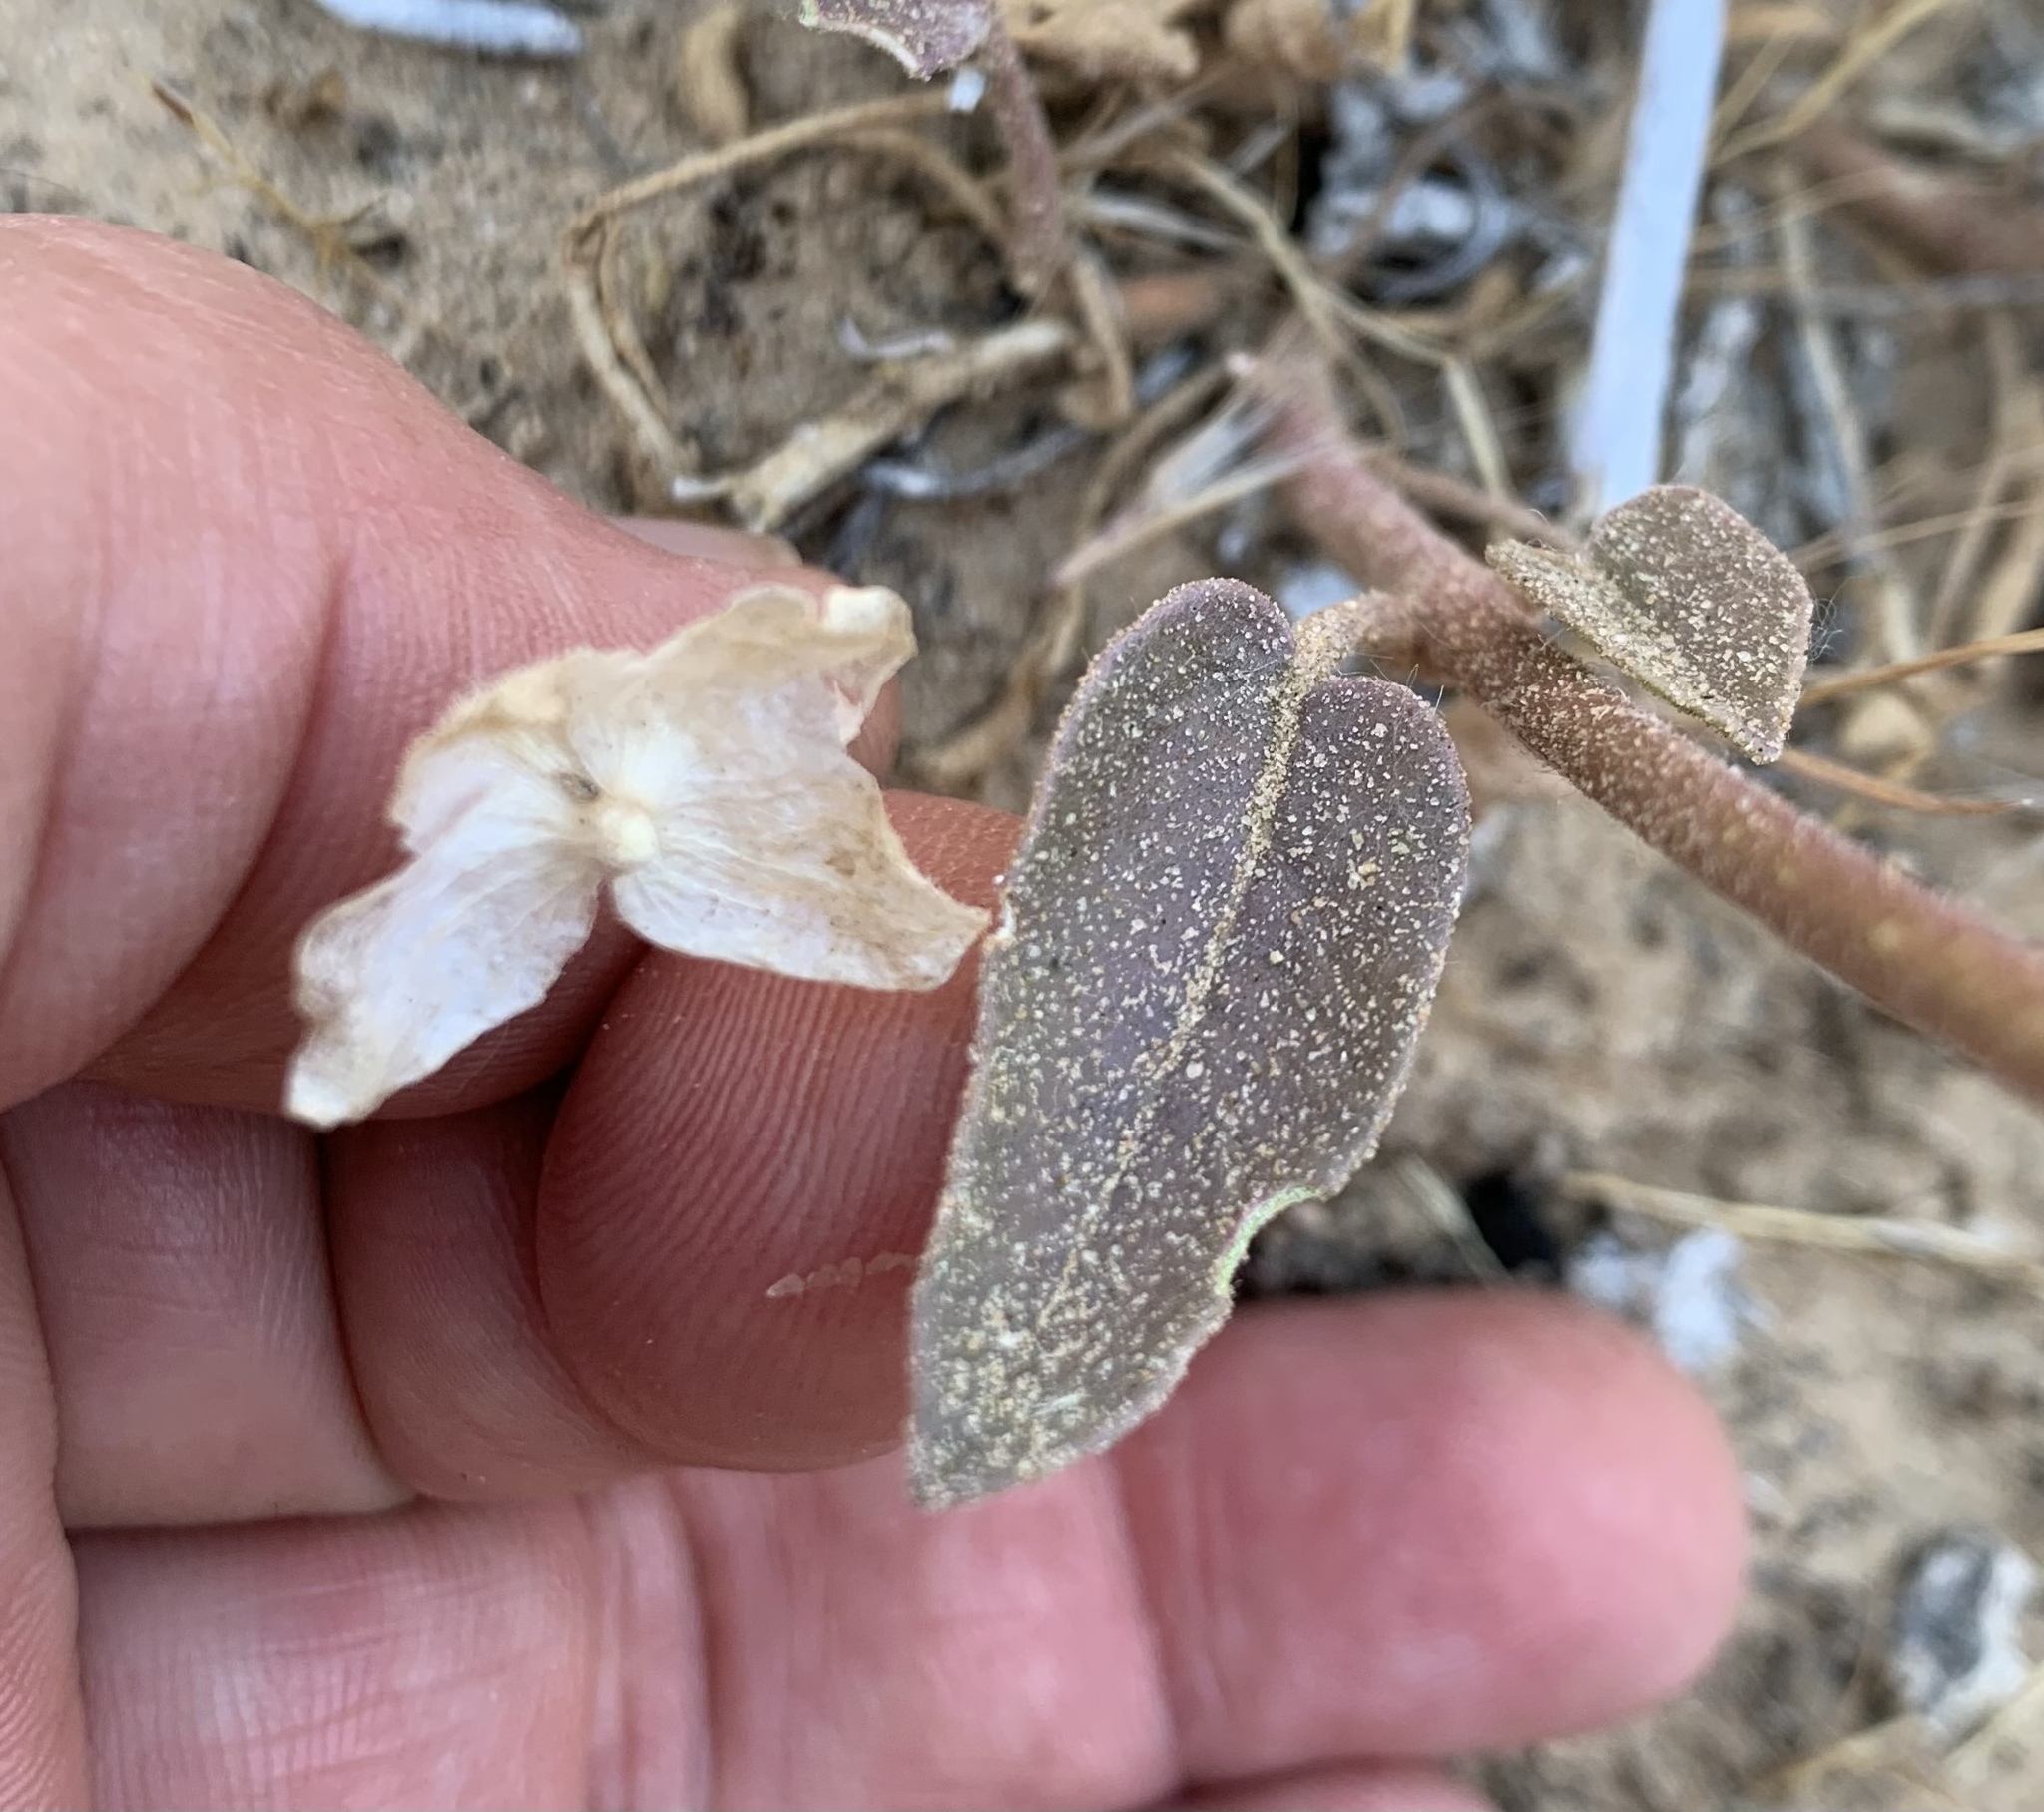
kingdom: Plantae
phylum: Tracheophyta
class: Magnoliopsida
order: Caryophyllales
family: Nyctaginaceae
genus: Abronia
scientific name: Abronia elliptica
